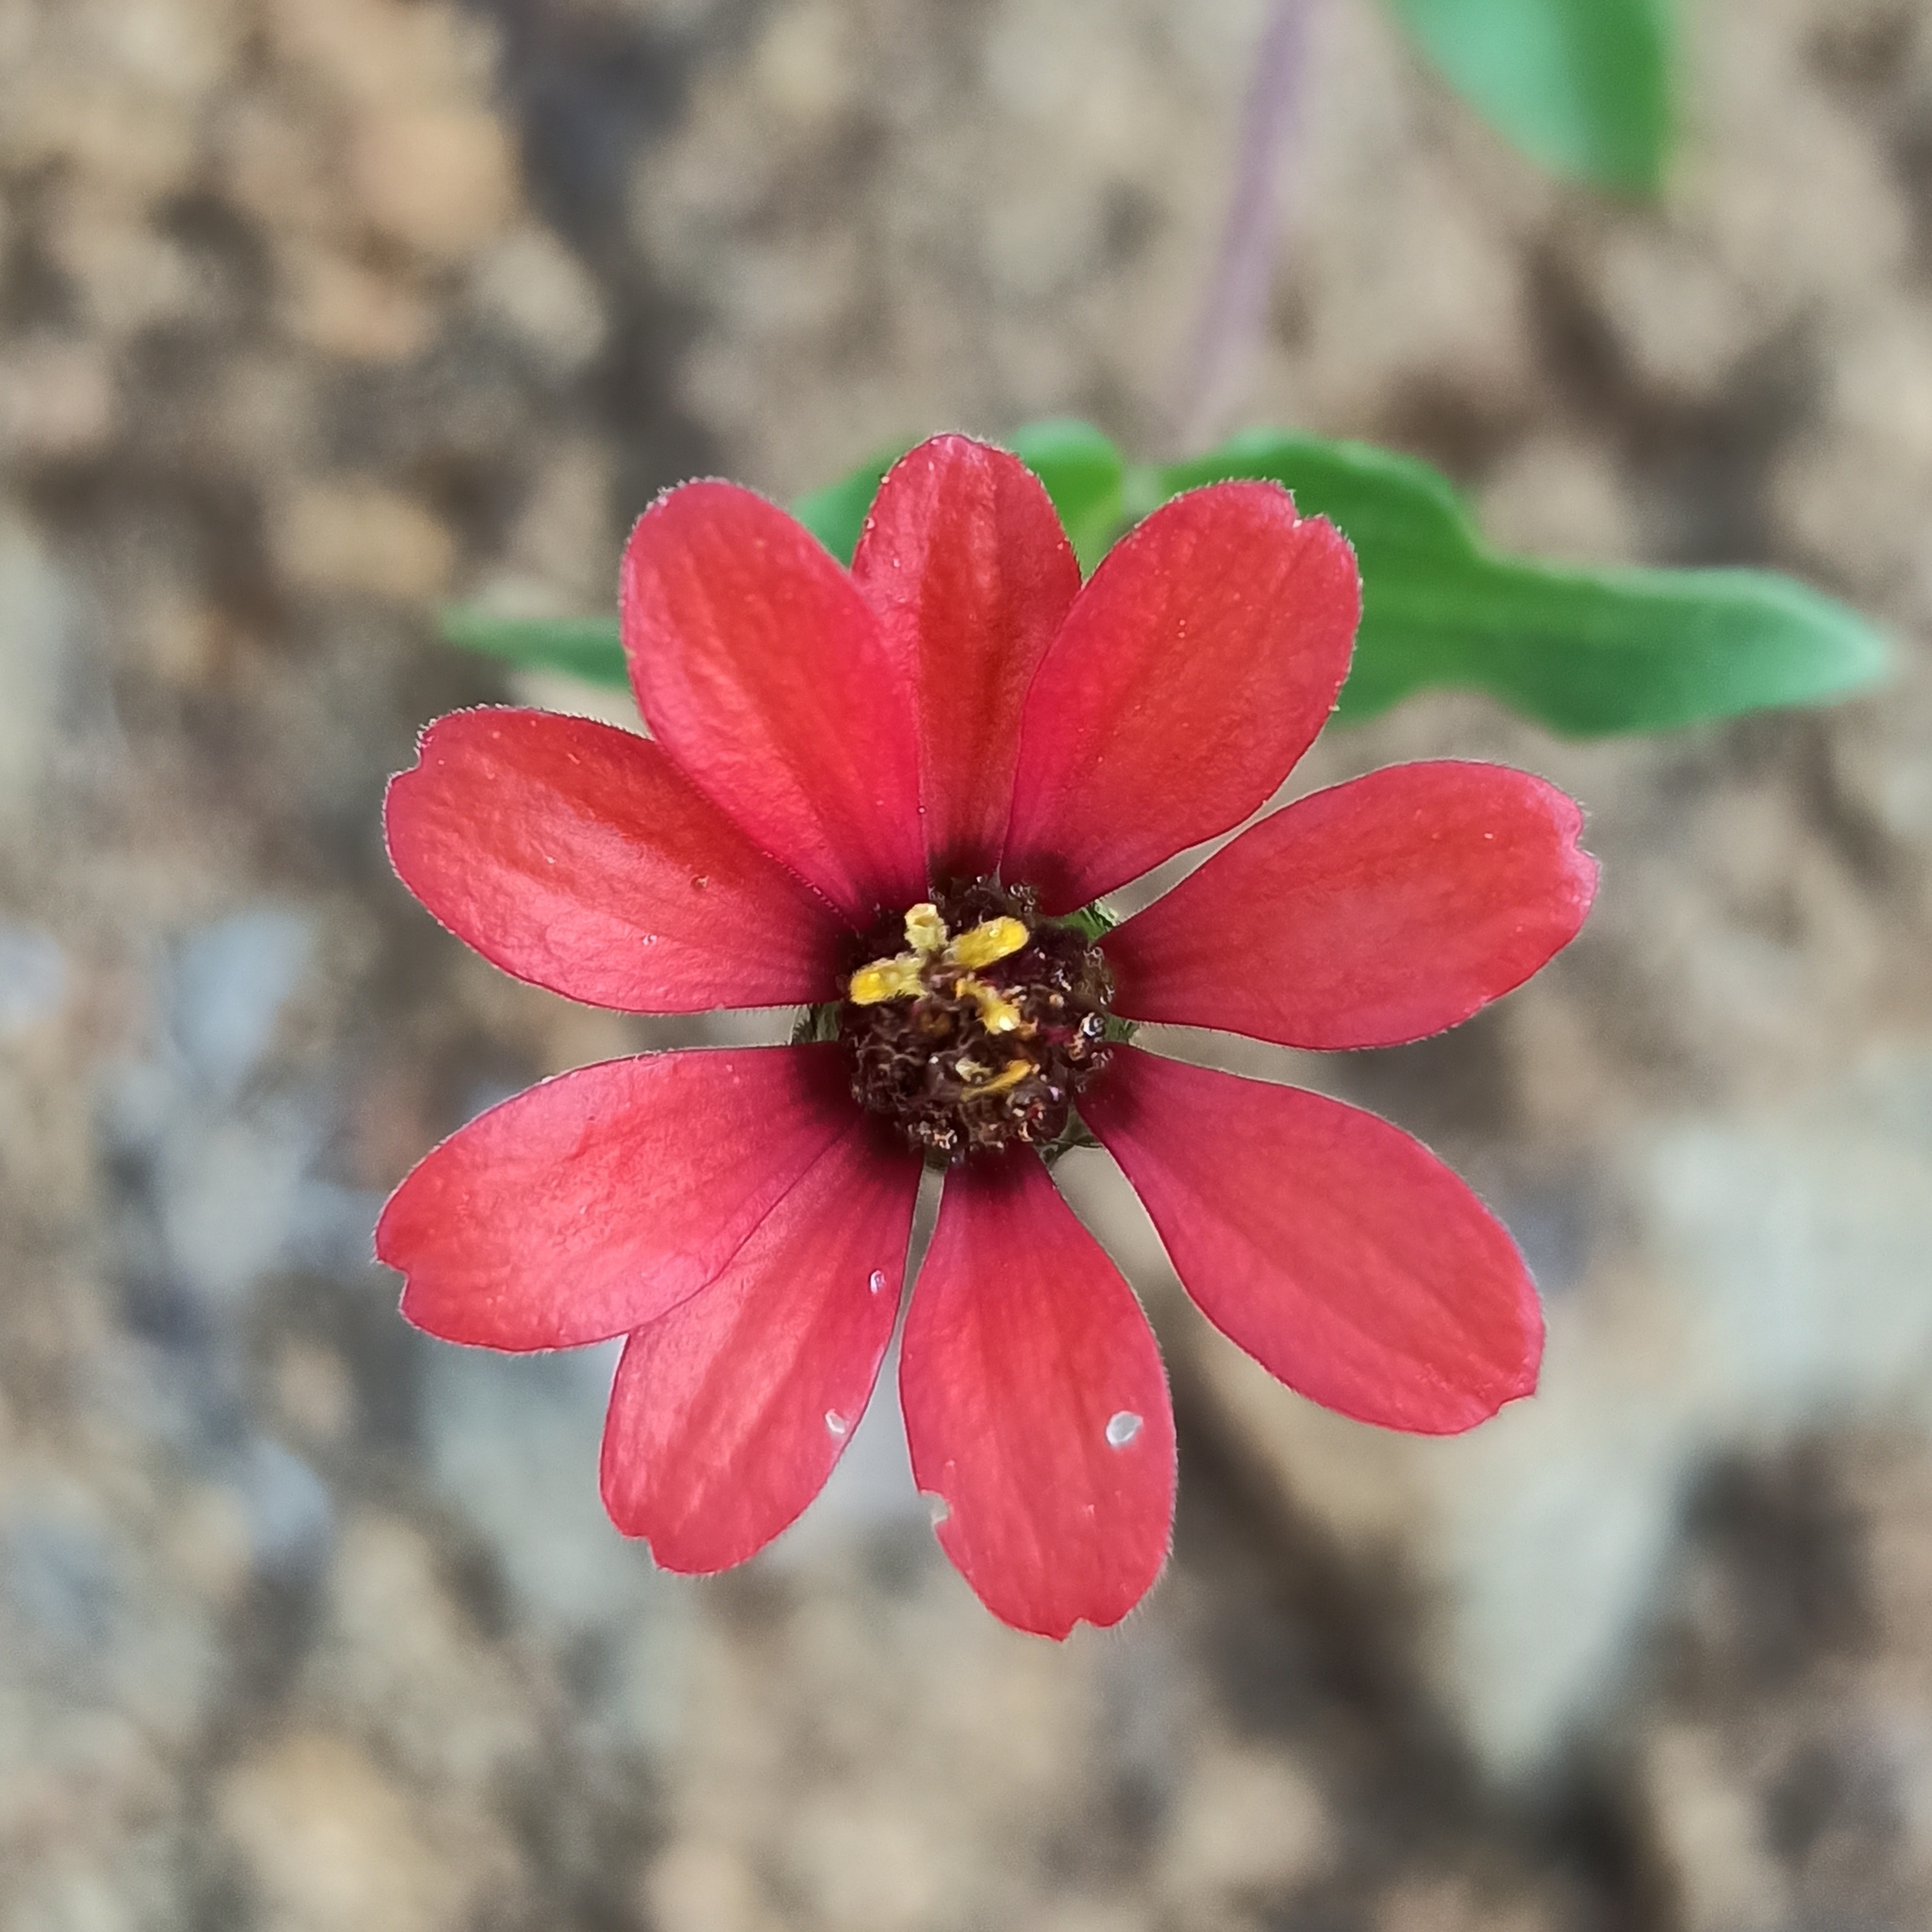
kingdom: Plantae
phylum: Tracheophyta
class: Magnoliopsida
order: Asterales
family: Asteraceae
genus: Zinnia
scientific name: Zinnia peruviana
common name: Peruvian zinnia
